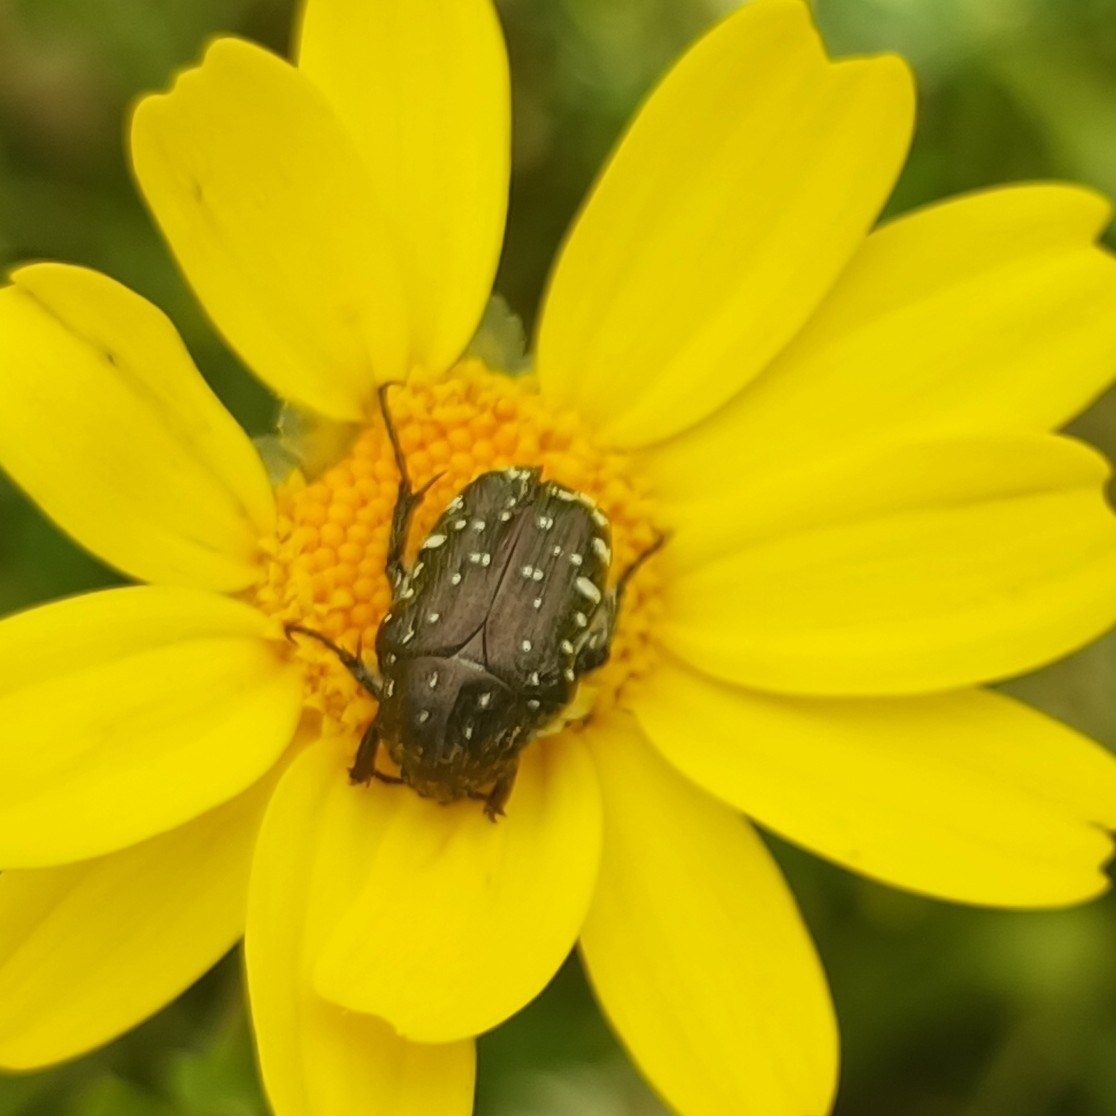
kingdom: Animalia
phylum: Arthropoda
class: Insecta
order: Coleoptera
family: Scarabaeidae
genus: Oxythyrea
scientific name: Oxythyrea funesta
